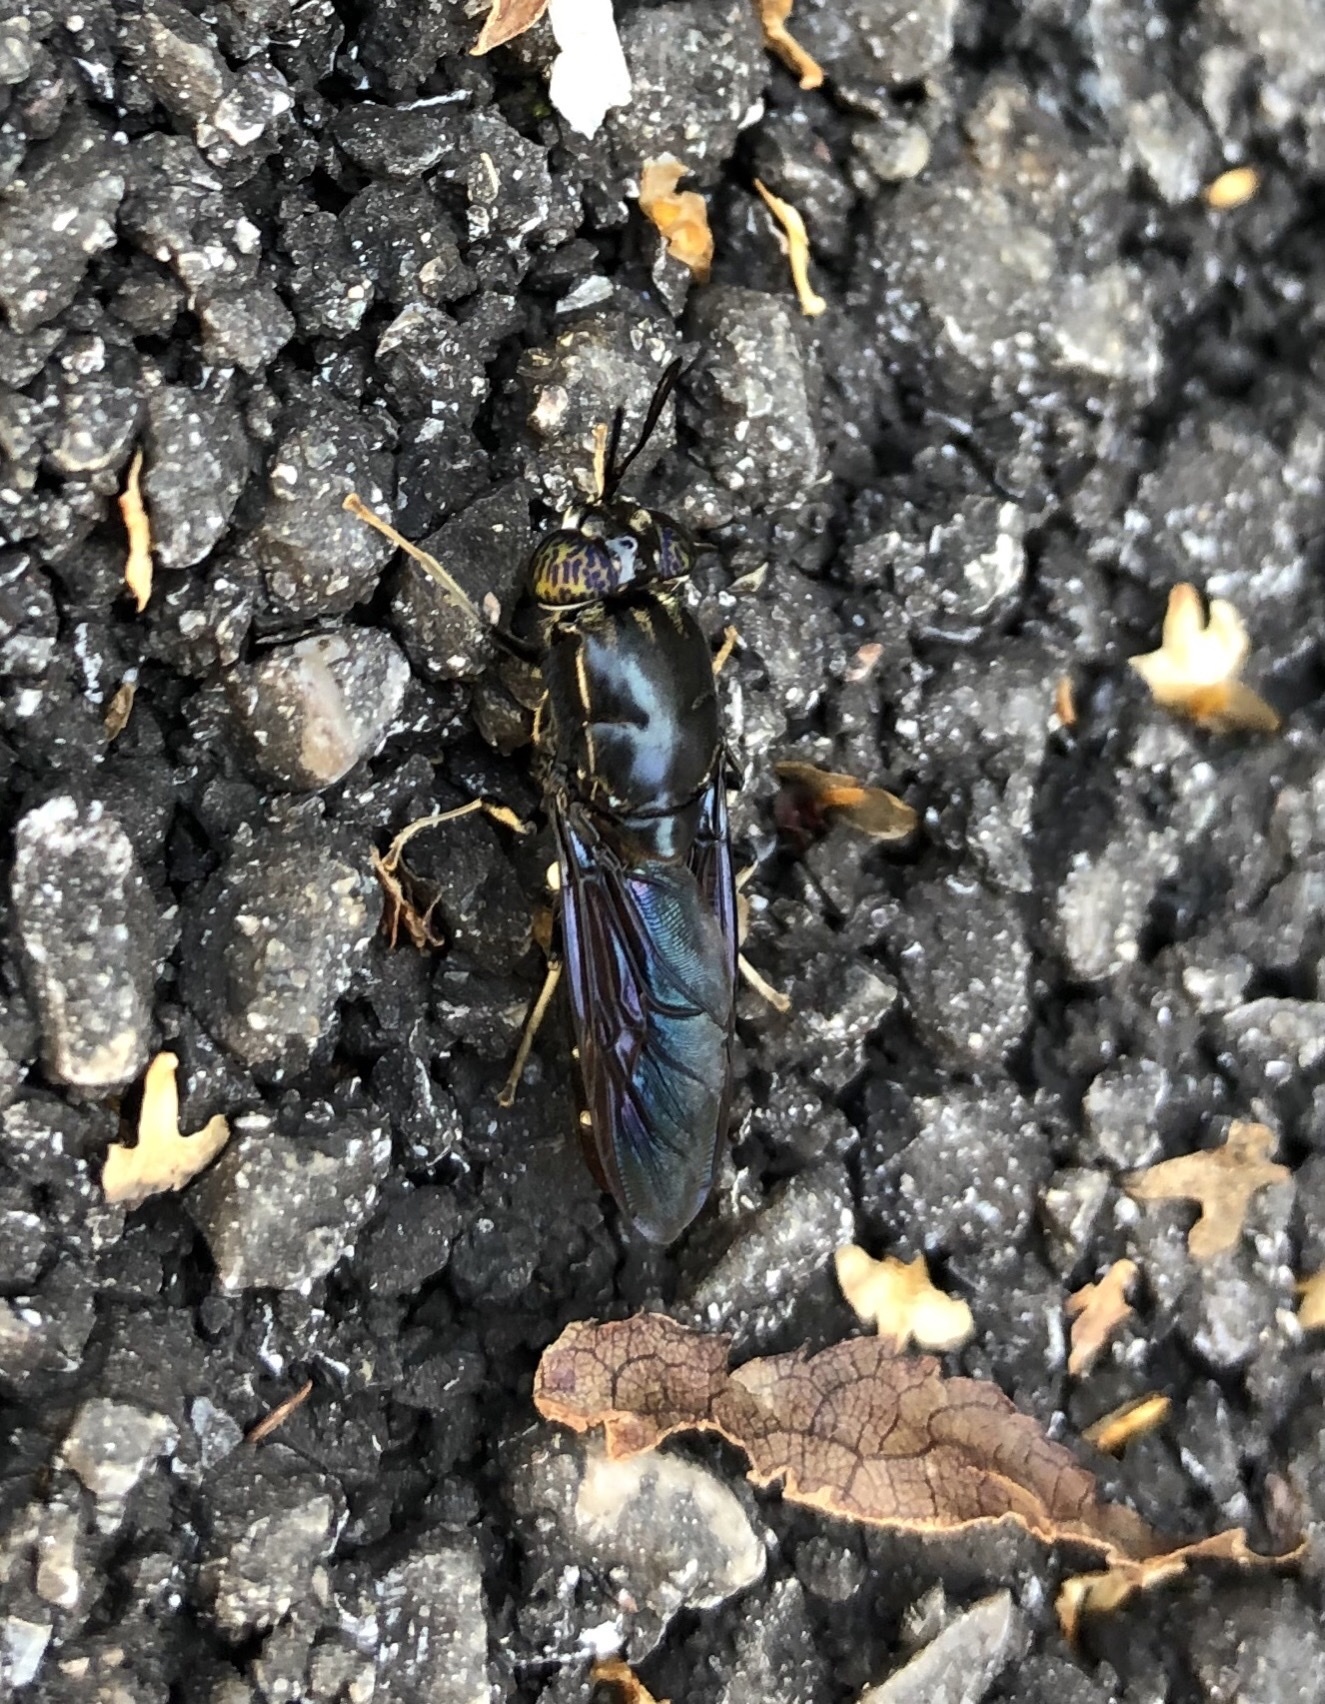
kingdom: Animalia
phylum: Arthropoda
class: Insecta
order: Diptera
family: Stratiomyidae
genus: Hermetia
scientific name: Hermetia illucens
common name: Black soldier fly
